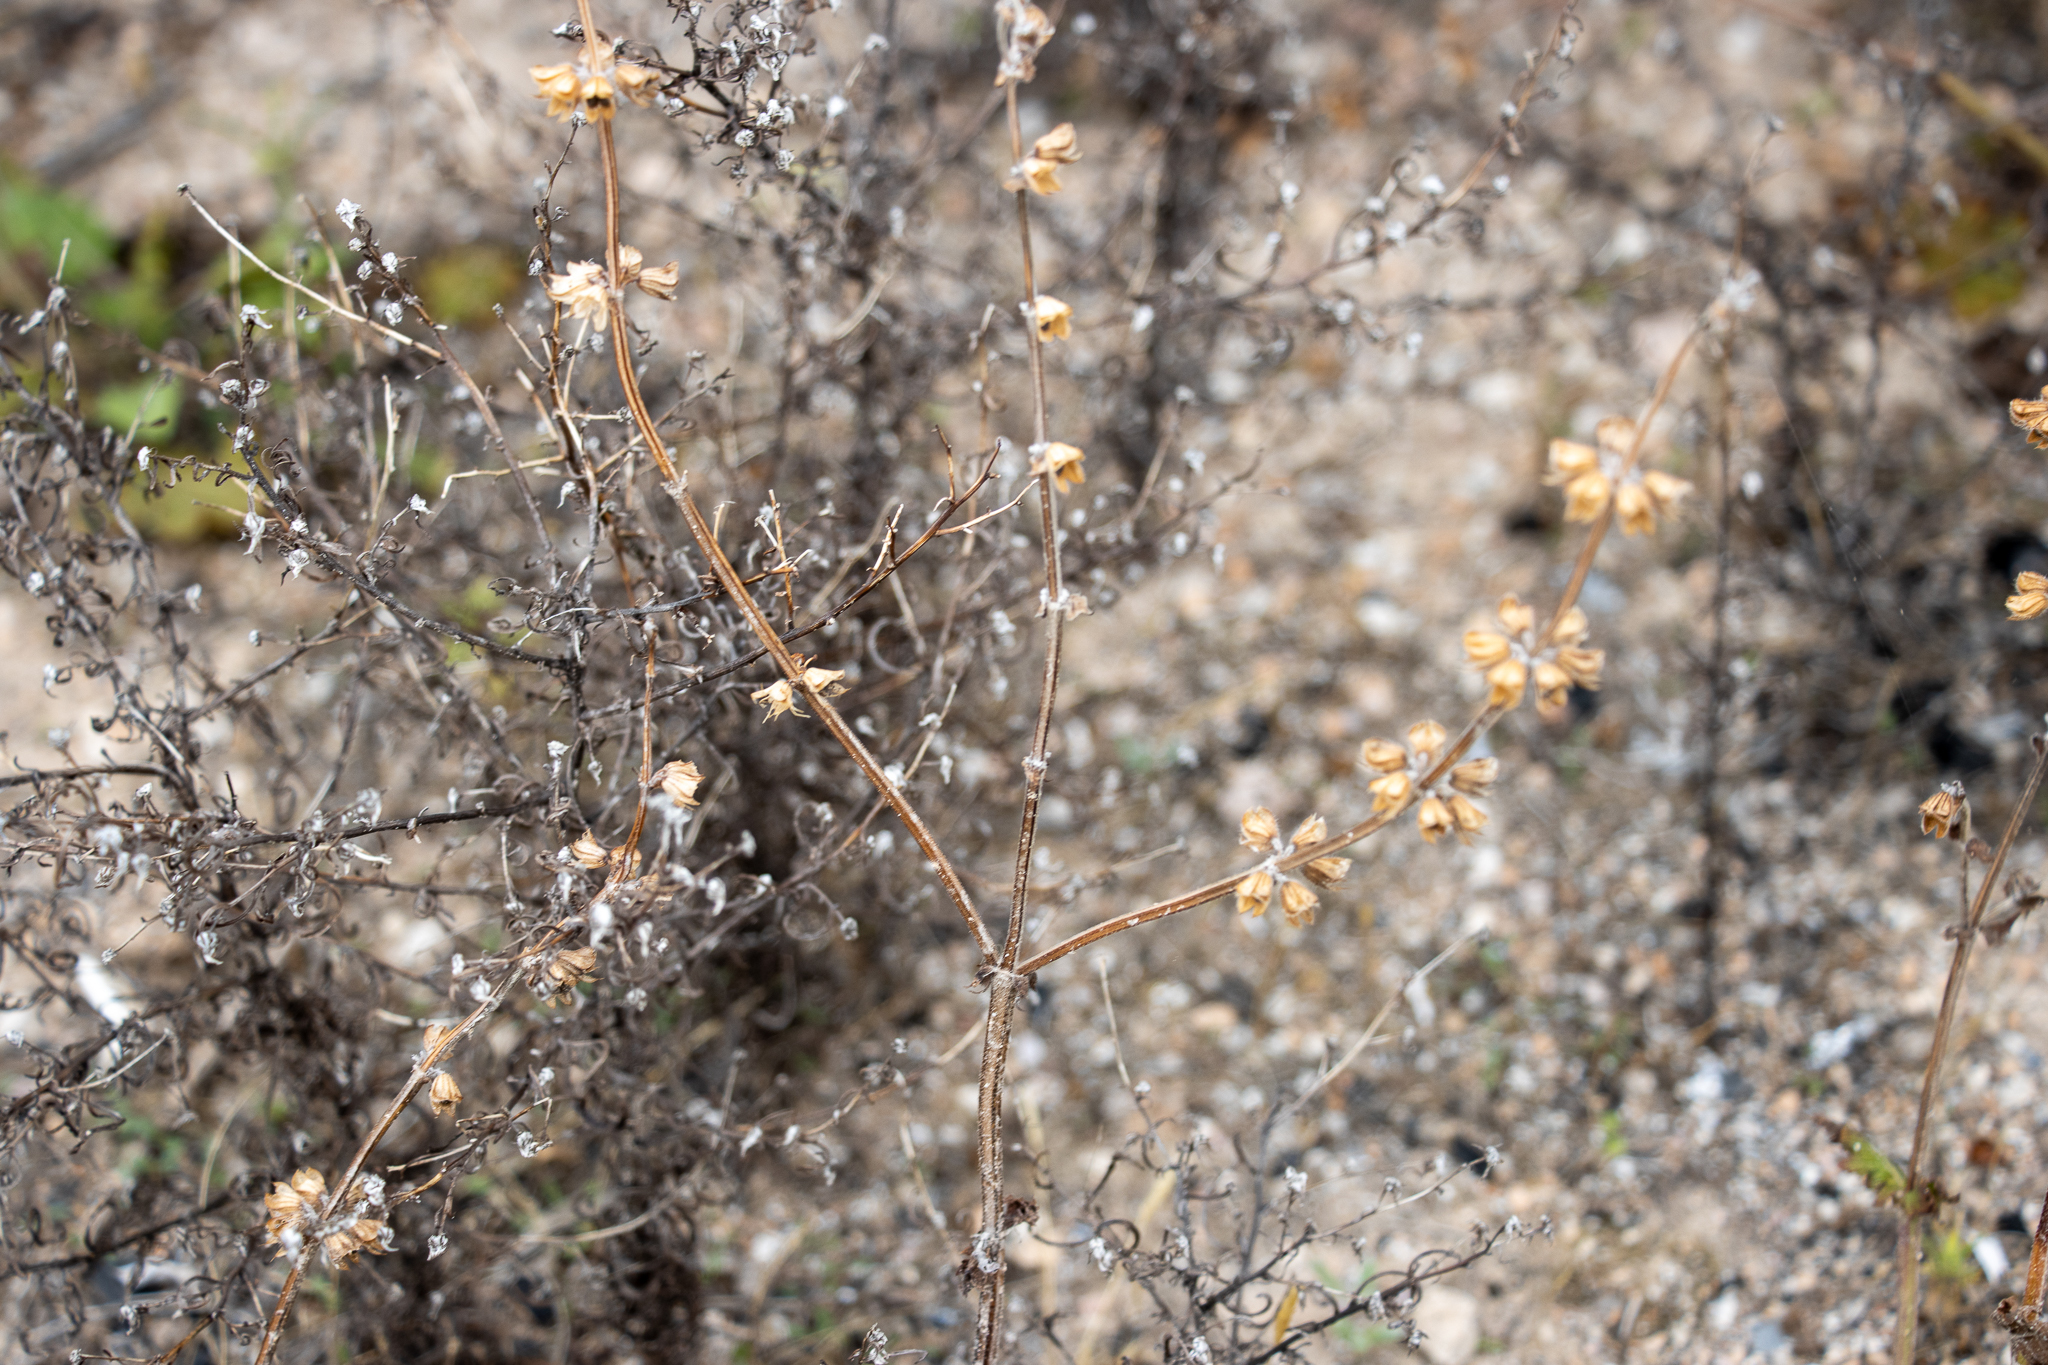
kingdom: Plantae
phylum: Tracheophyta
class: Magnoliopsida
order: Lamiales
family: Lamiaceae
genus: Salvia
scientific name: Salvia verbenaca
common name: Wild clary
